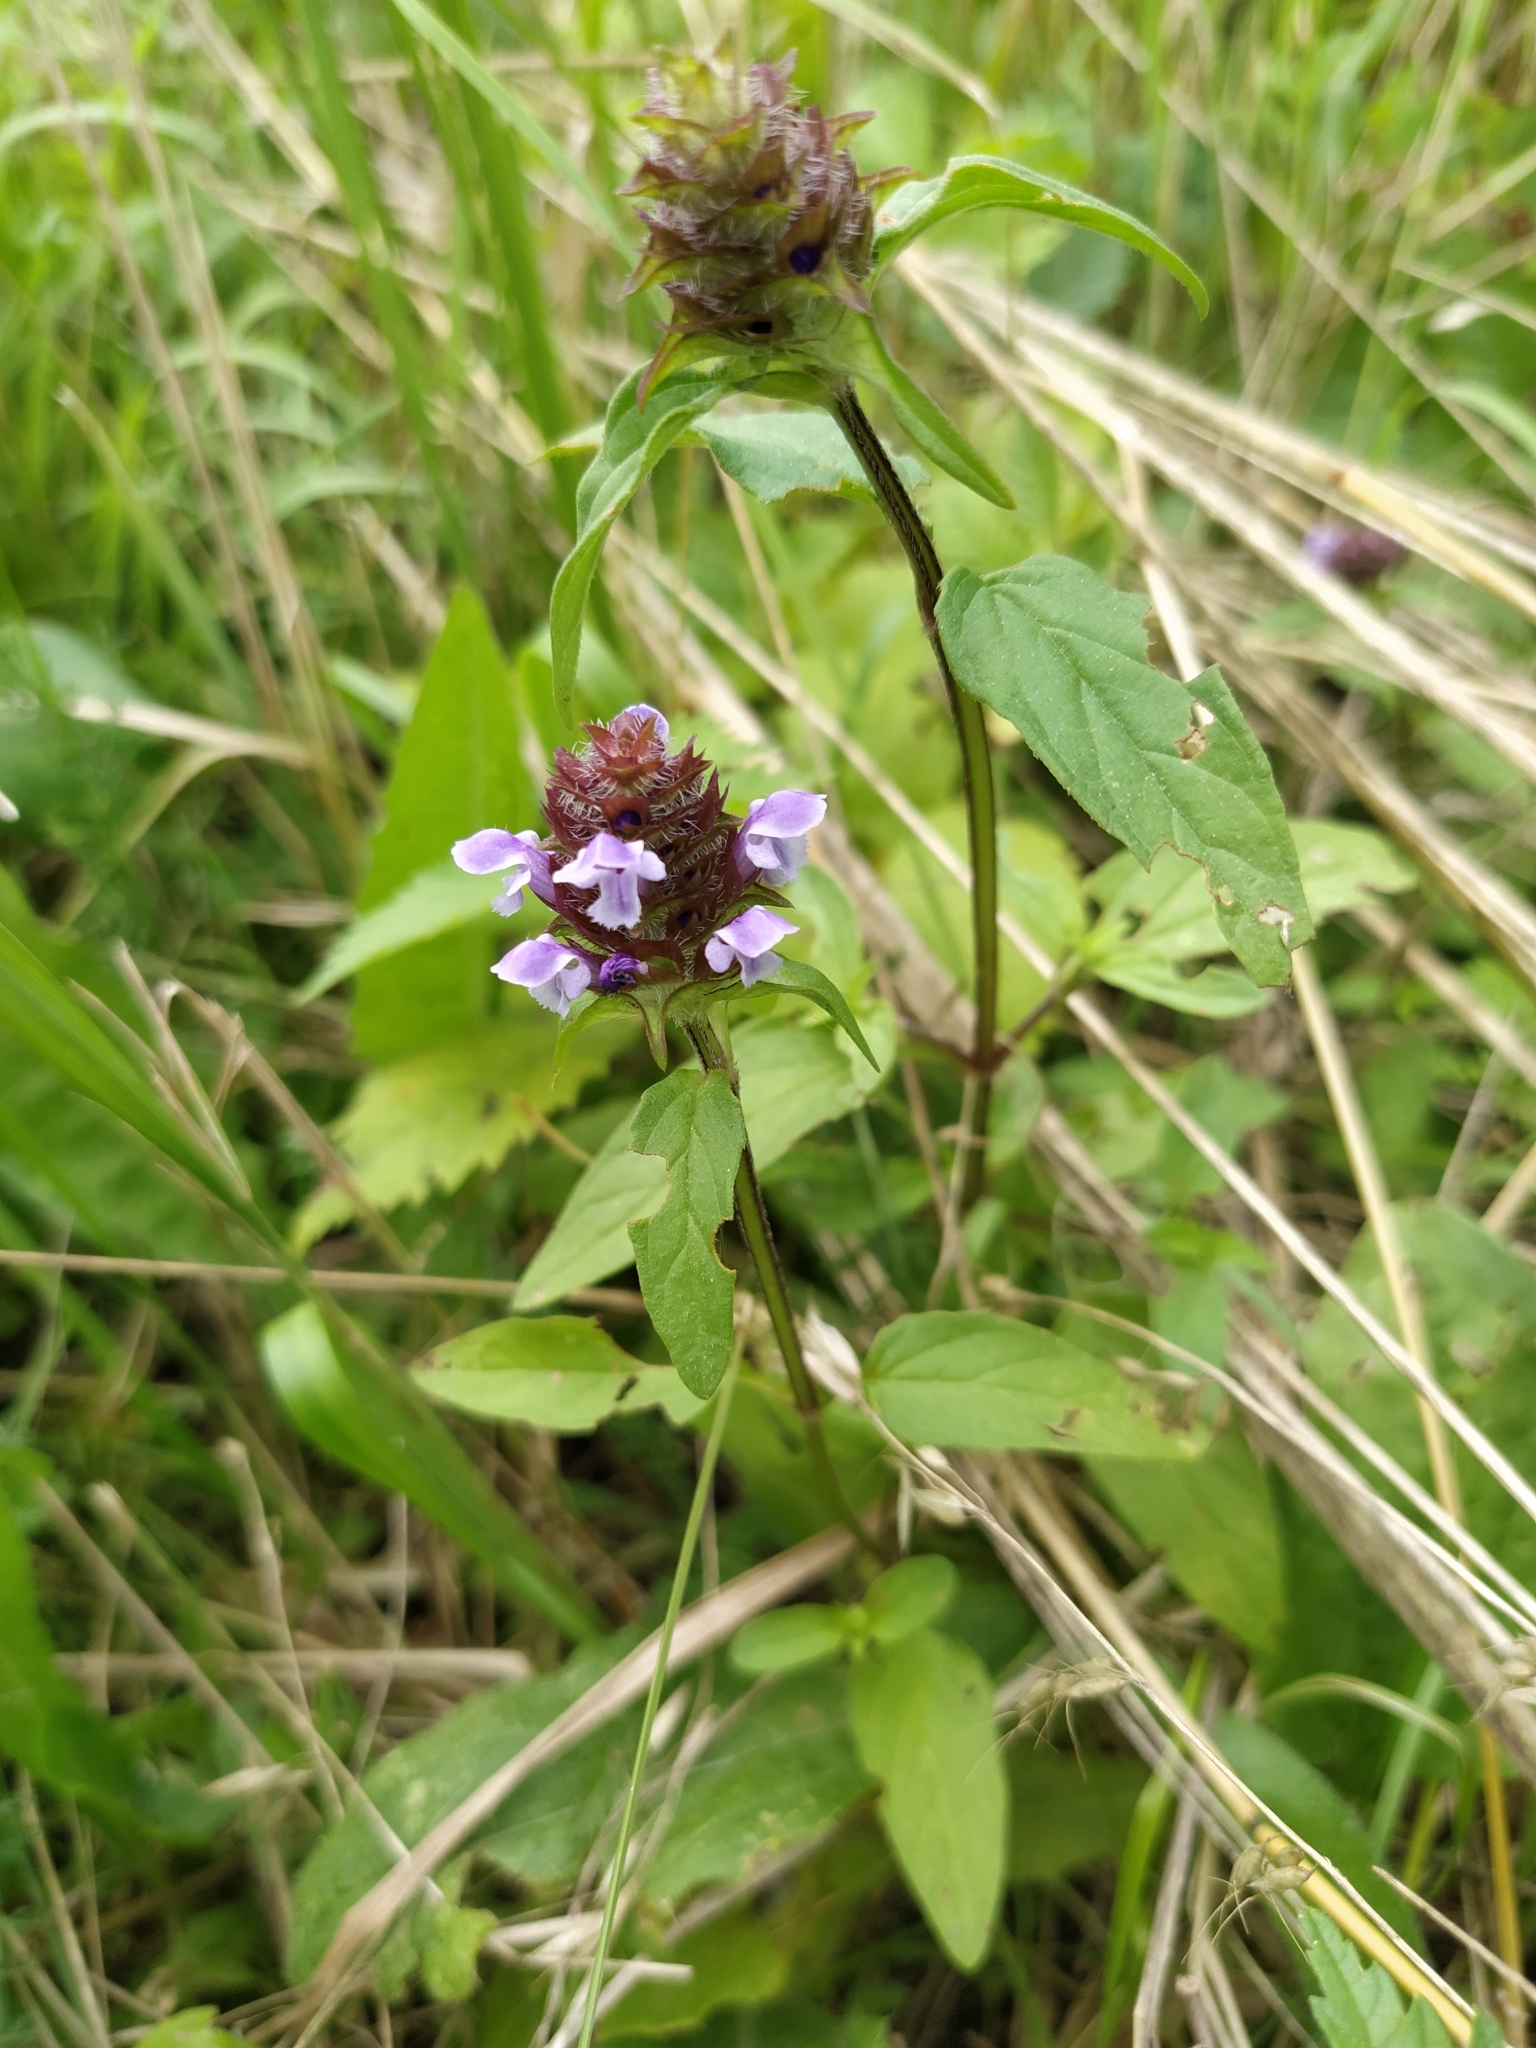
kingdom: Plantae
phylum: Tracheophyta
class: Magnoliopsida
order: Lamiales
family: Lamiaceae
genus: Prunella
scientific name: Prunella vulgaris
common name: Heal-all
